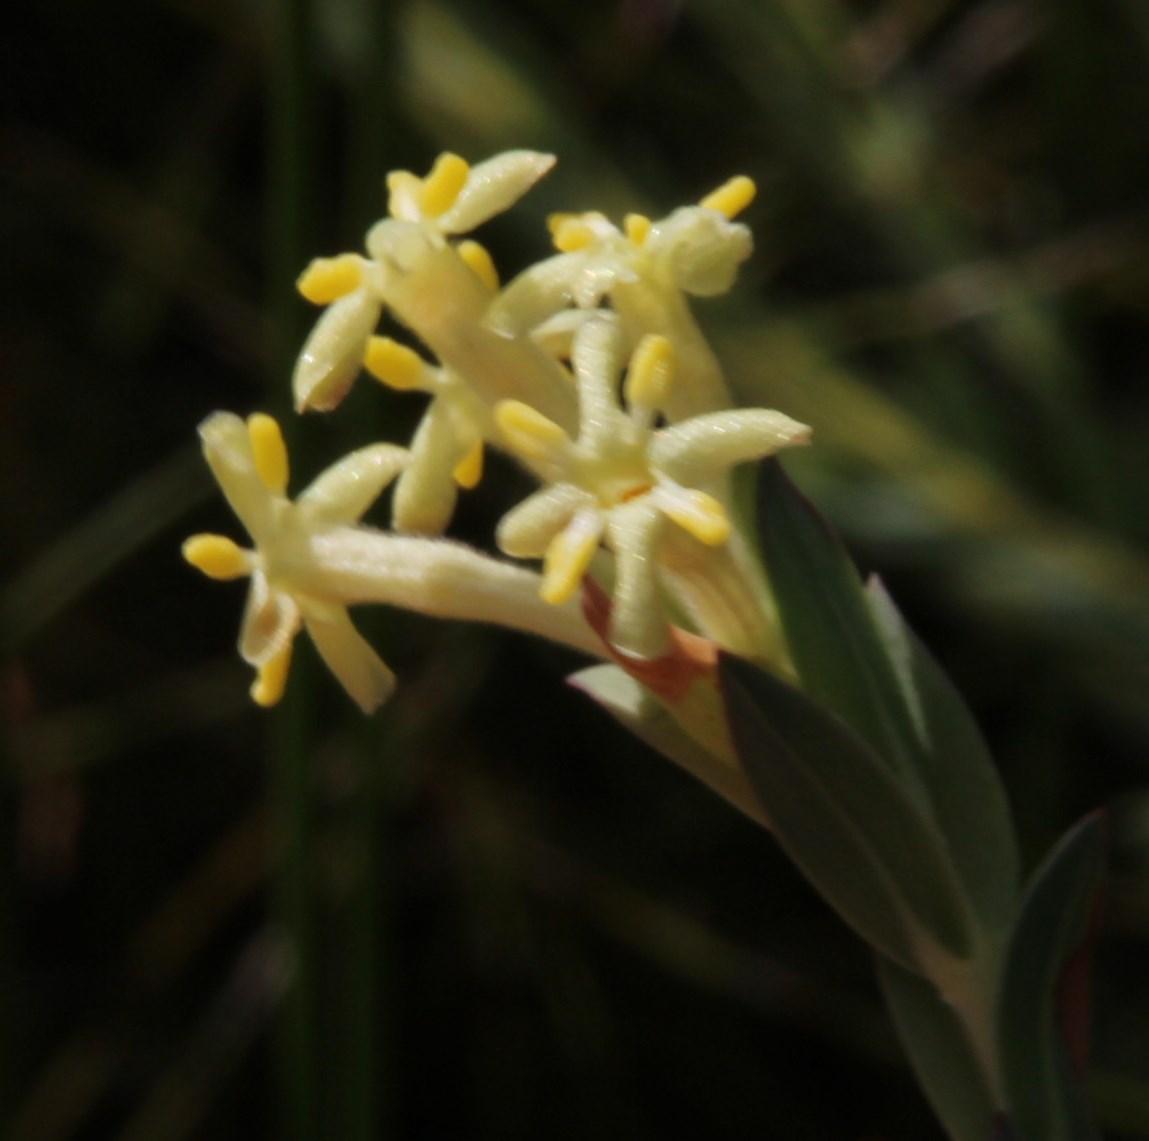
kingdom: Plantae
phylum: Tracheophyta
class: Magnoliopsida
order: Malvales
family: Thymelaeaceae
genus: Gnidia
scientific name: Gnidia oppositifolia
